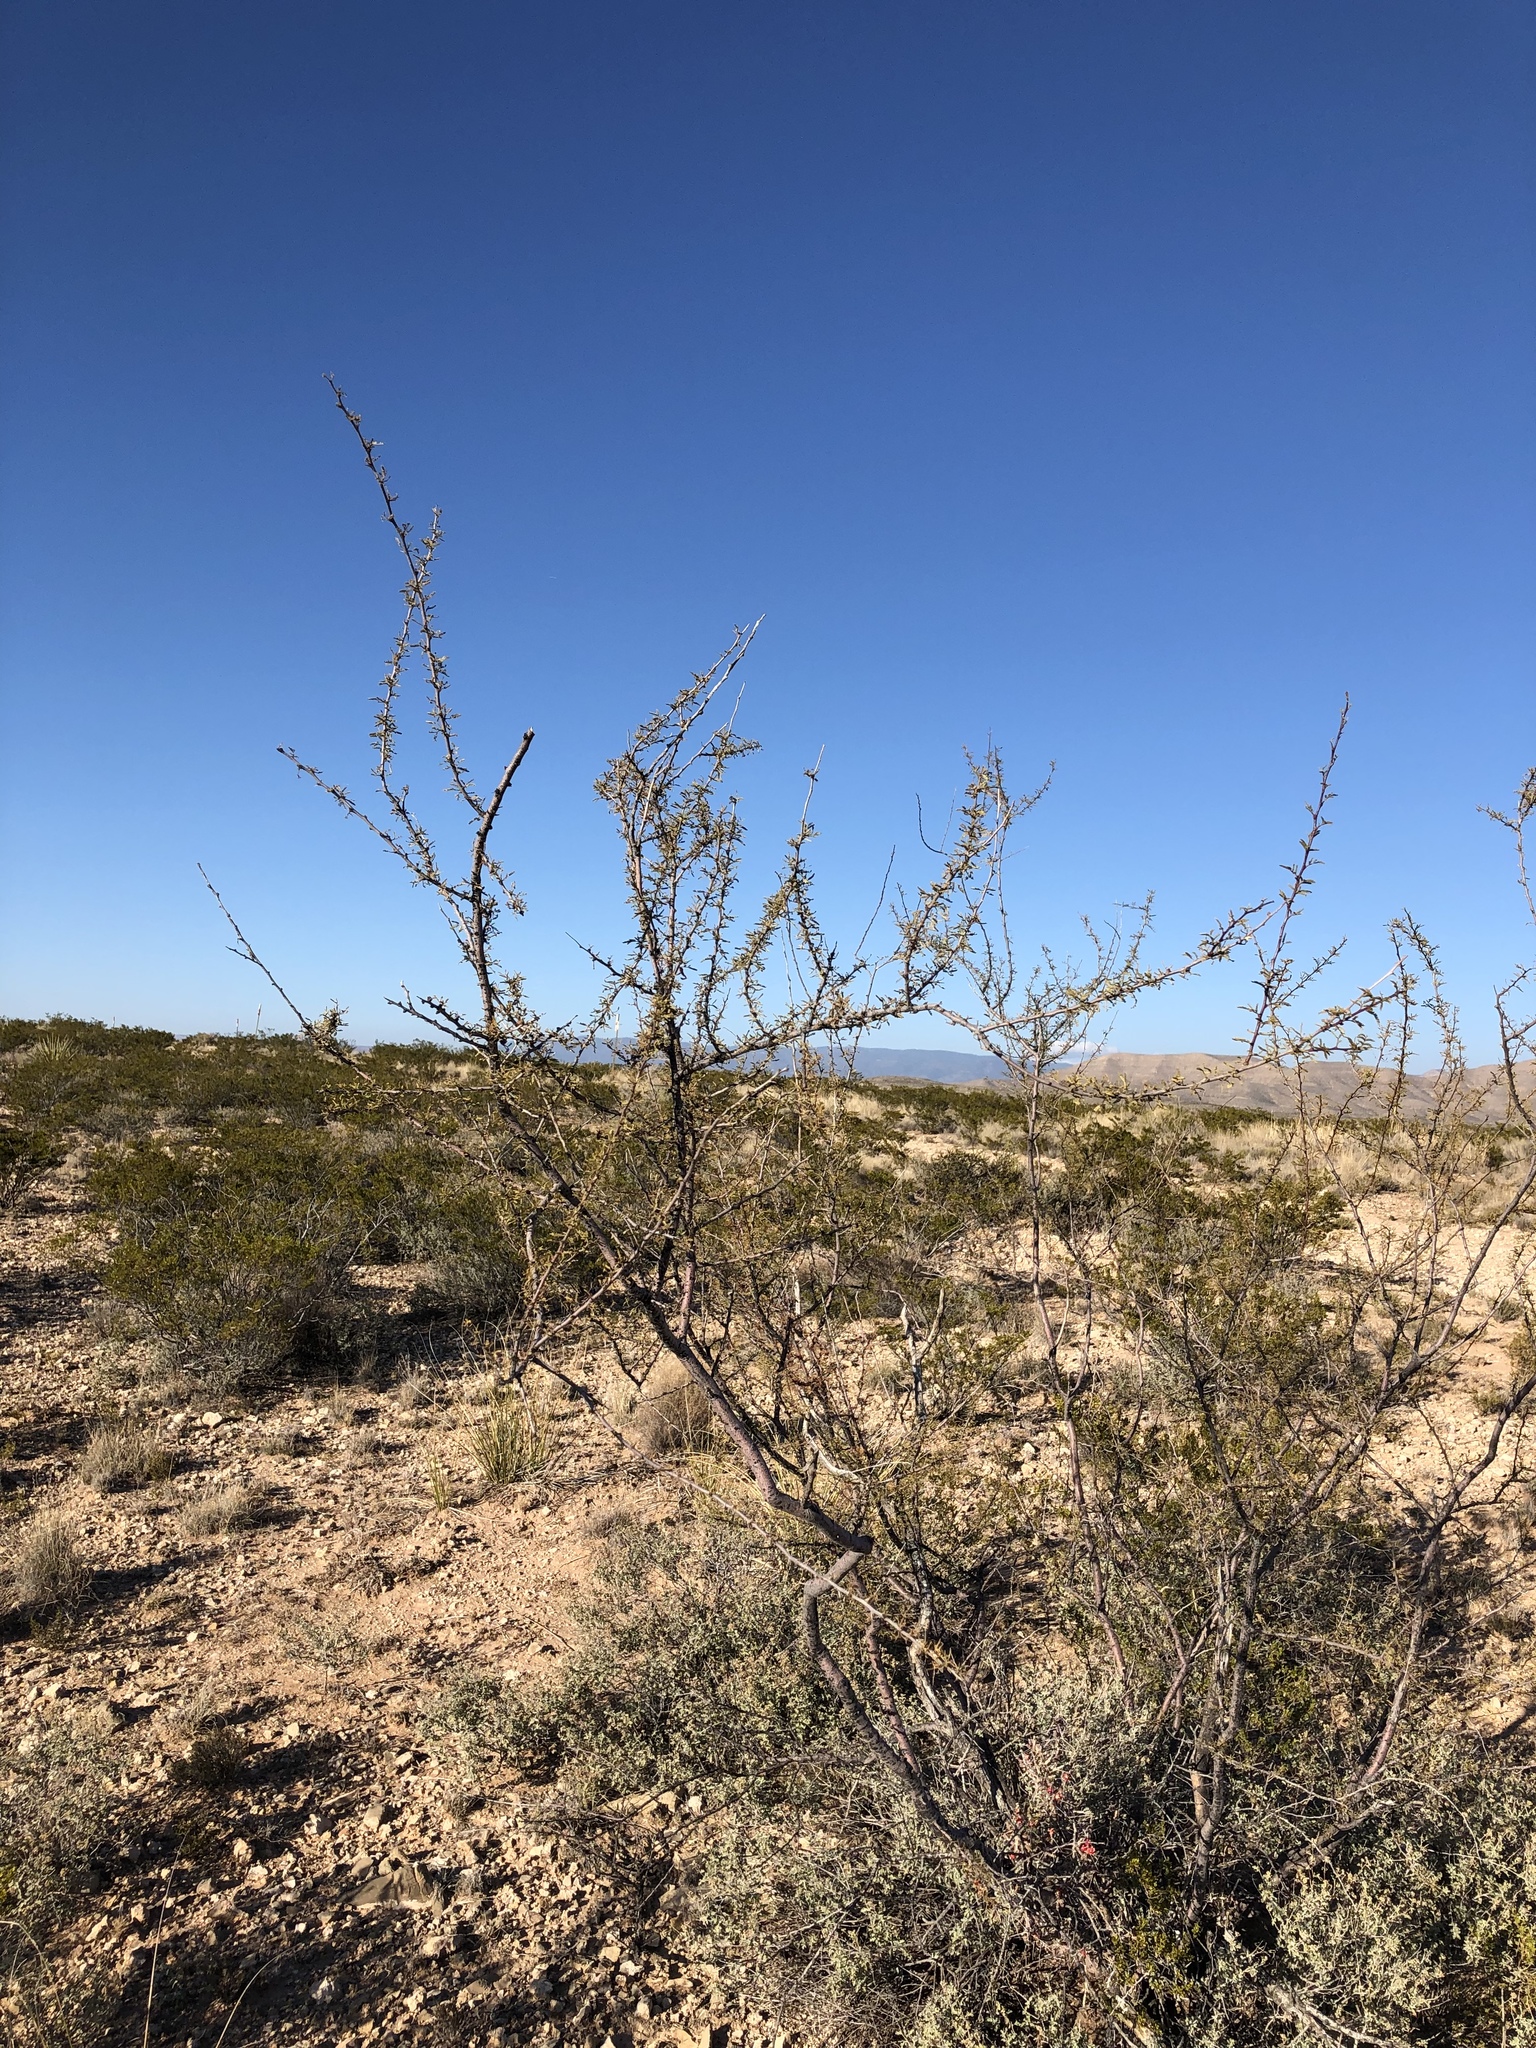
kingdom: Plantae
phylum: Tracheophyta
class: Magnoliopsida
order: Fabales
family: Fabaceae
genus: Vachellia
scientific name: Vachellia constricta
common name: Mescat acacia
